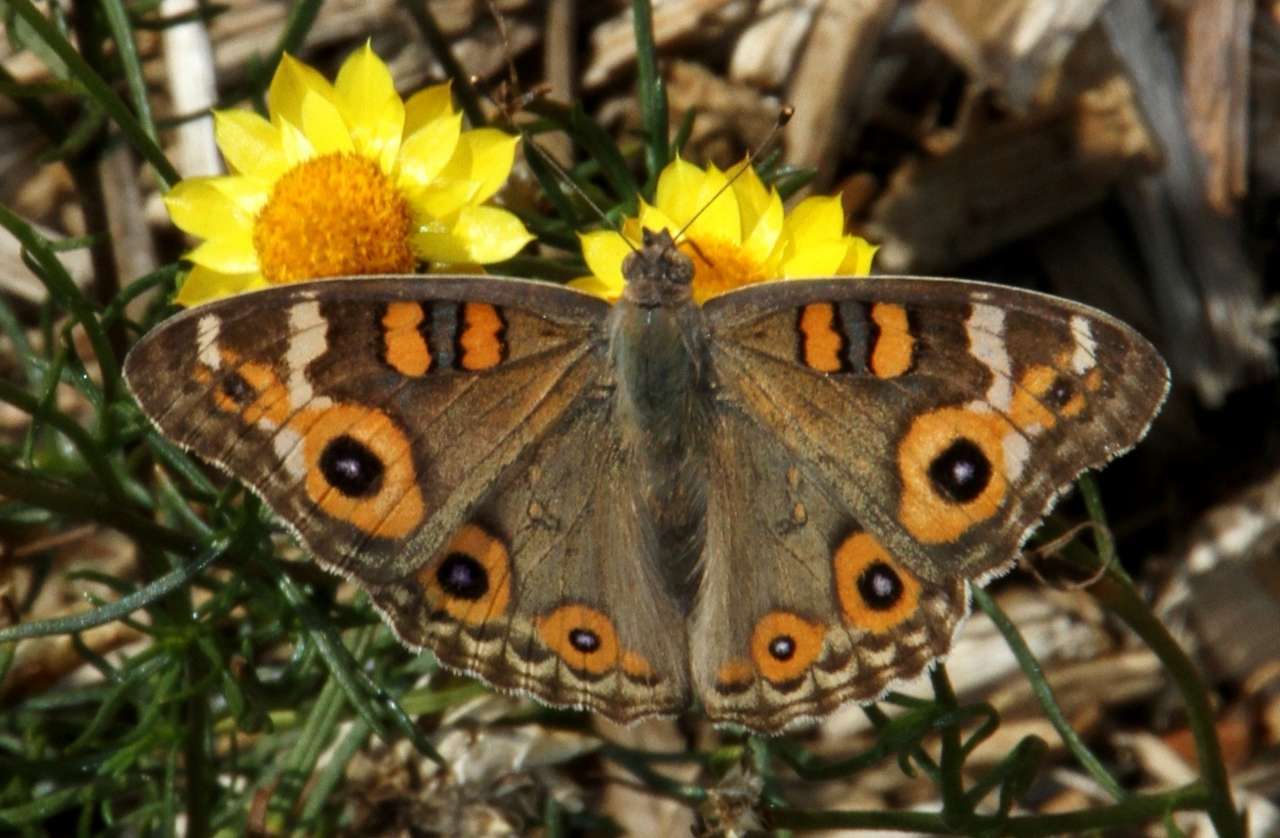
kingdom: Animalia
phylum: Arthropoda
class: Insecta
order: Lepidoptera
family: Nymphalidae
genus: Junonia
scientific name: Junonia villida
